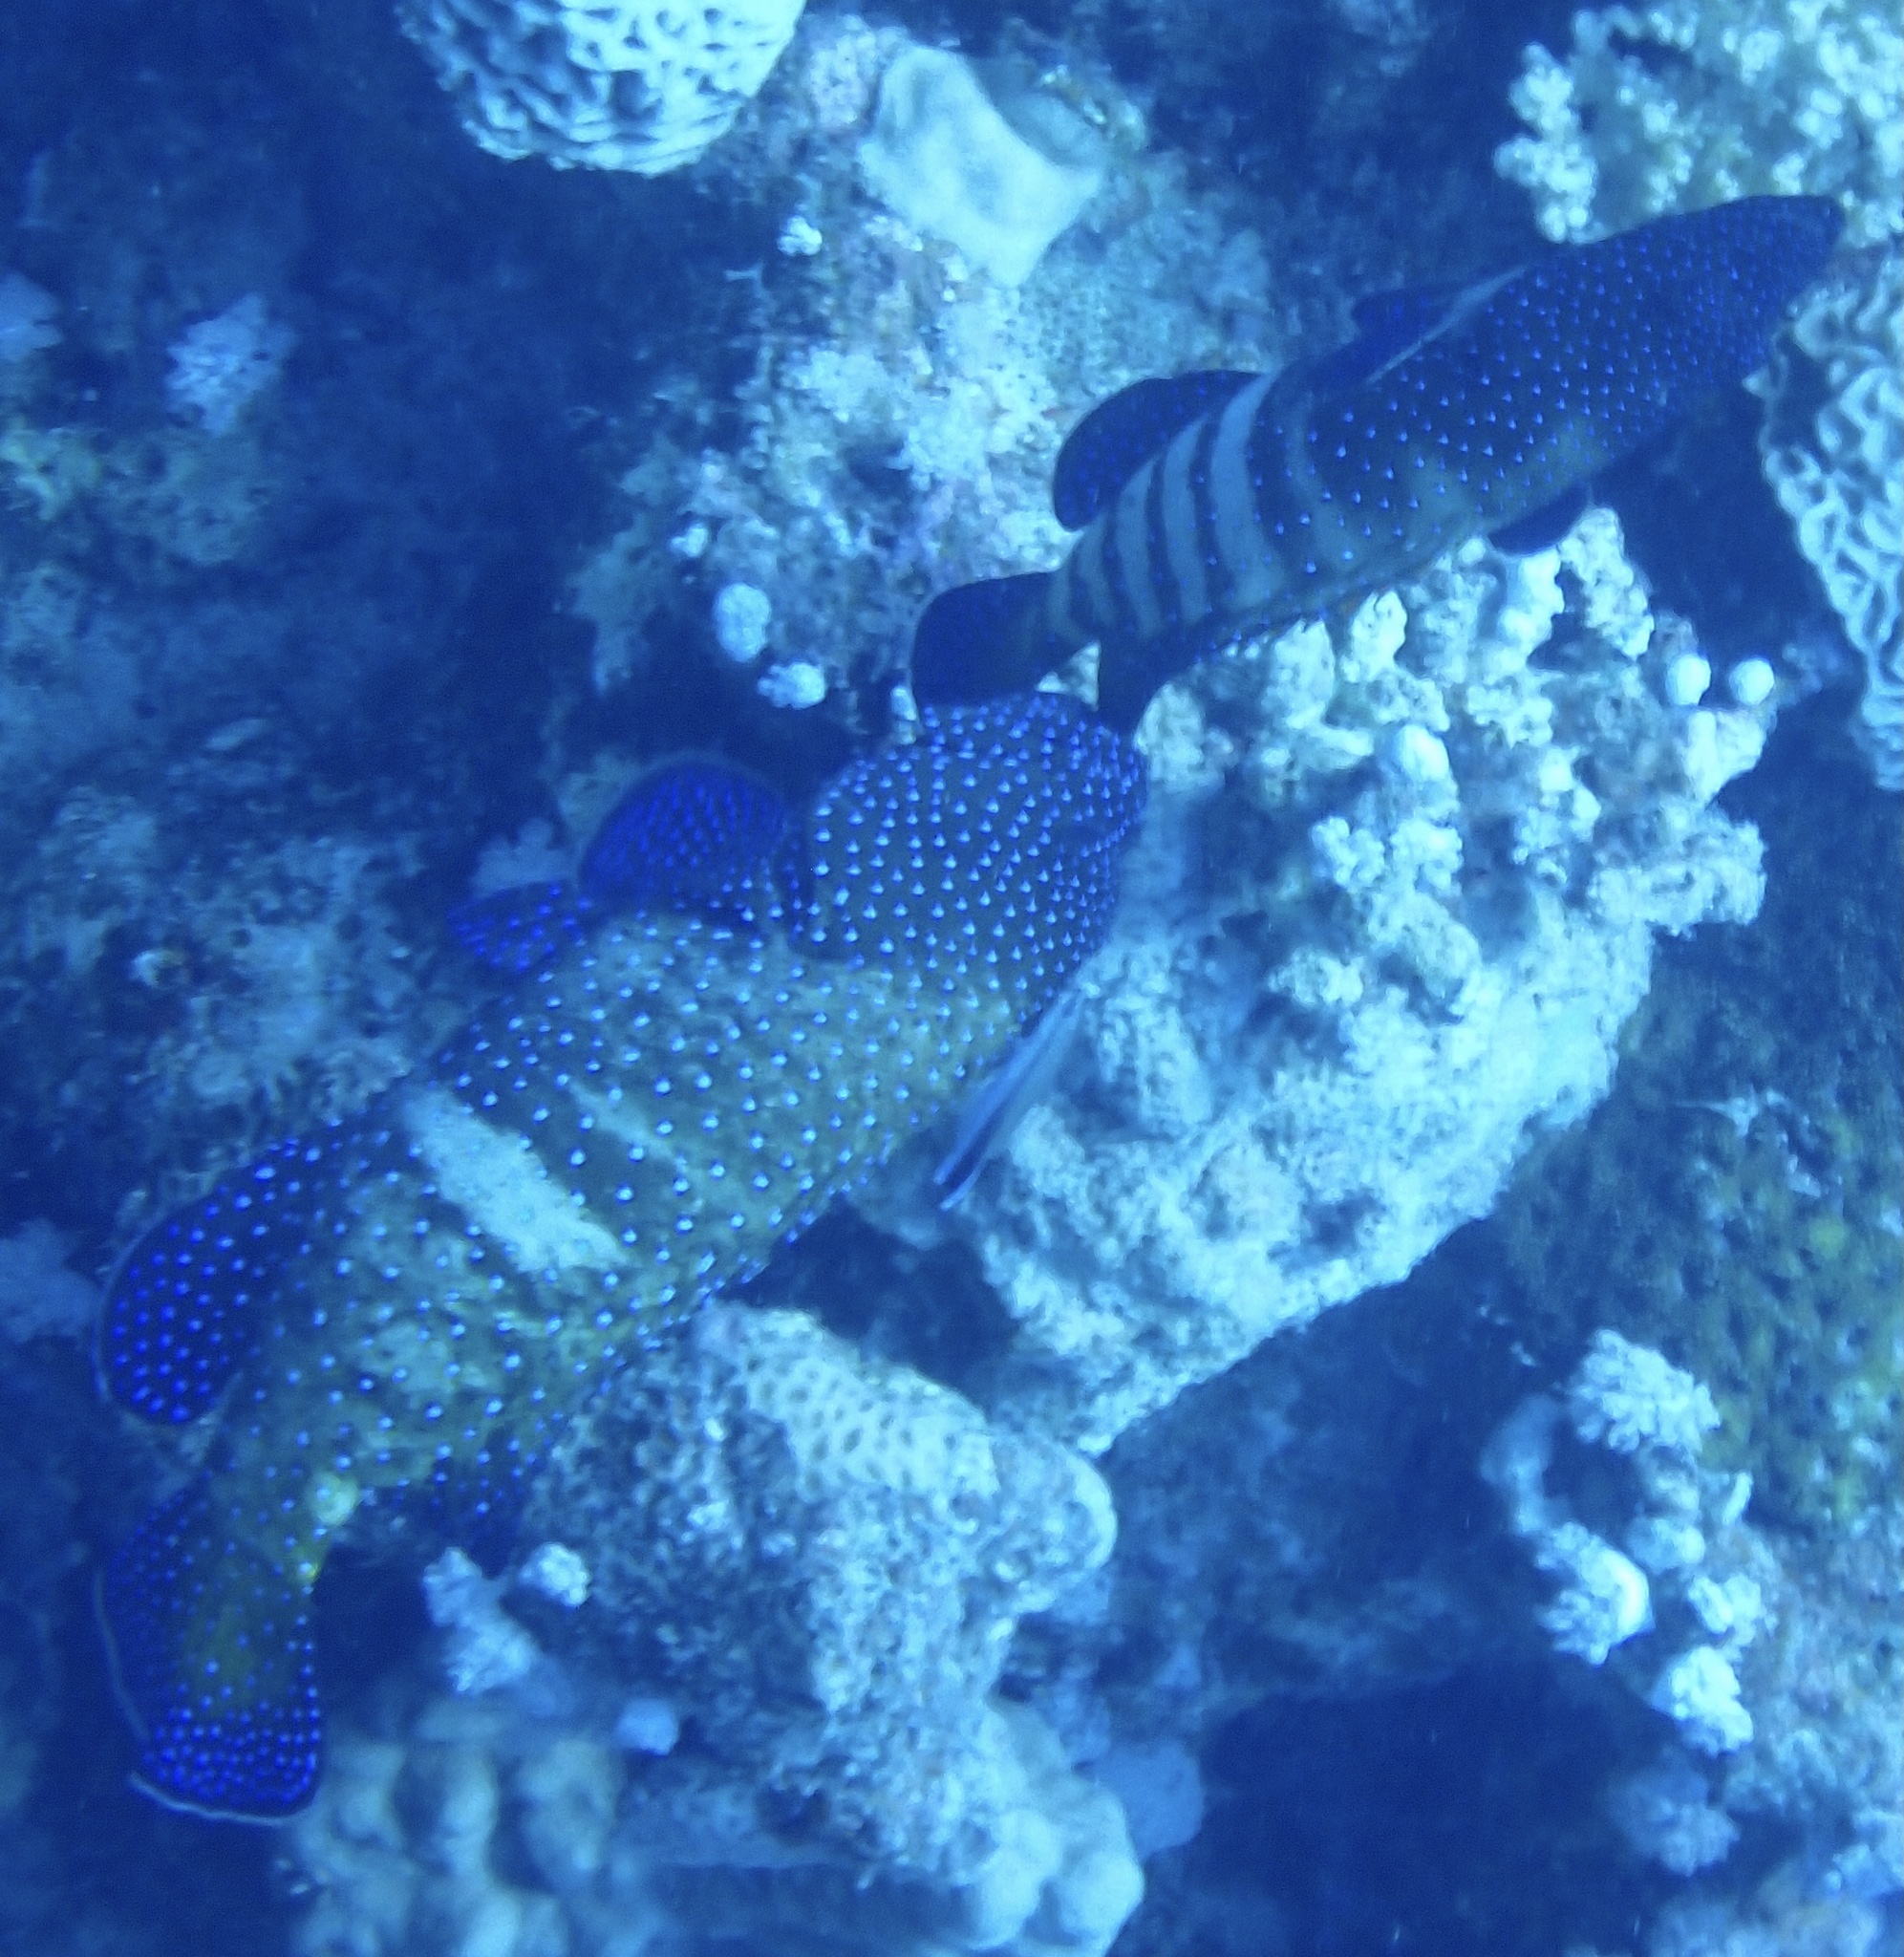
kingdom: Animalia
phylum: Chordata
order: Perciformes
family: Serranidae
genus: Cephalopholis
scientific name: Cephalopholis argus
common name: Peacock grouper
